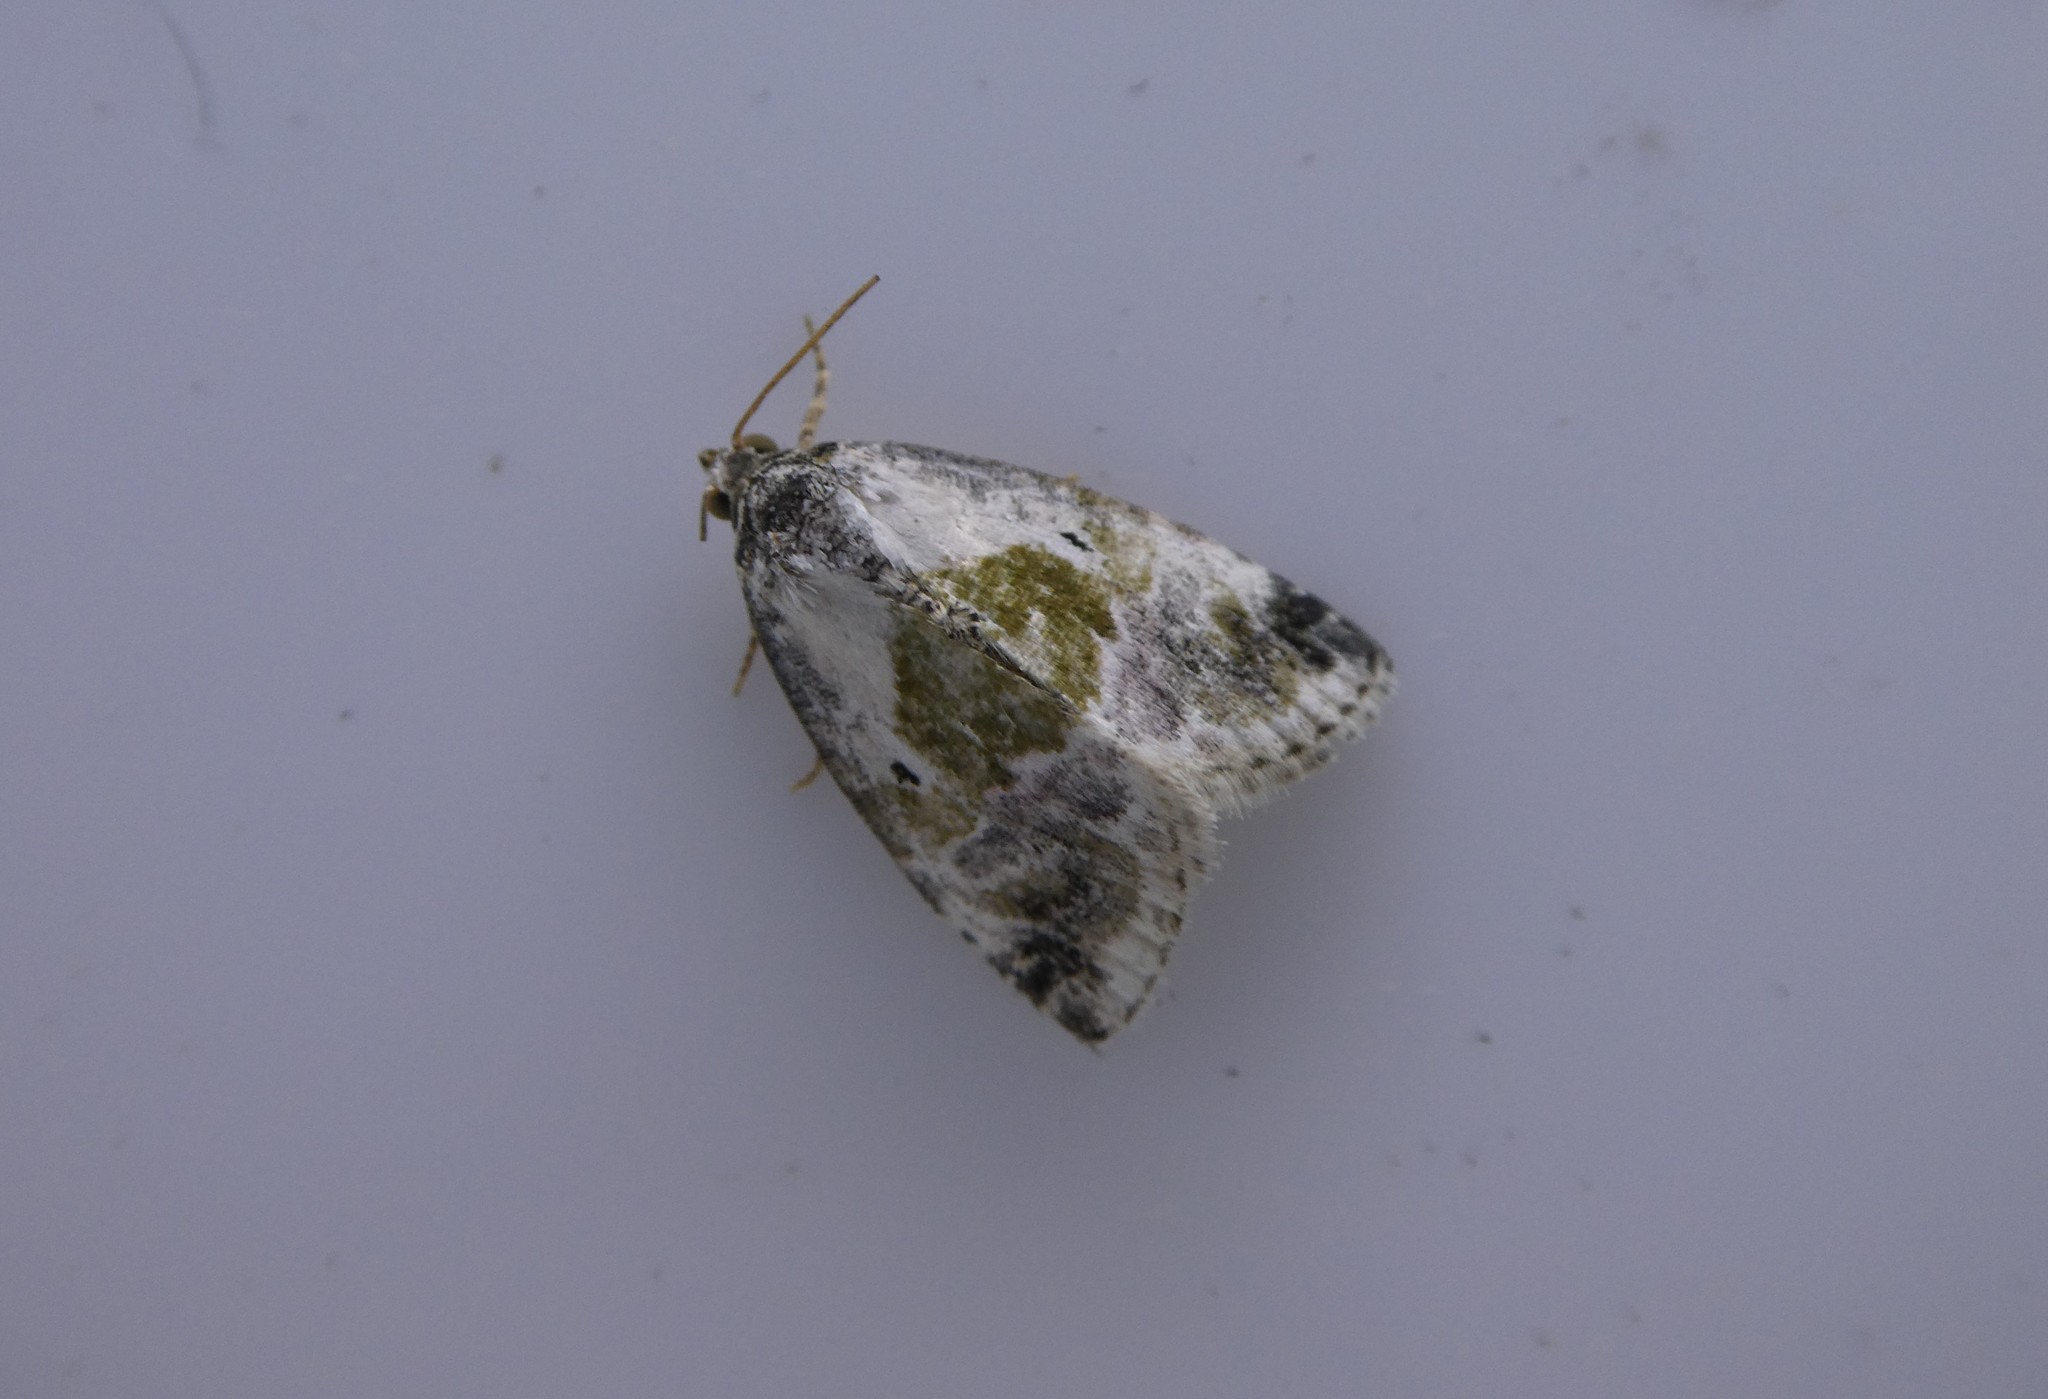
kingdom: Animalia
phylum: Arthropoda
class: Insecta
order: Lepidoptera
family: Noctuidae
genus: Maliattha
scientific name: Maliattha synochitis
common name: Black-dotted glyph
